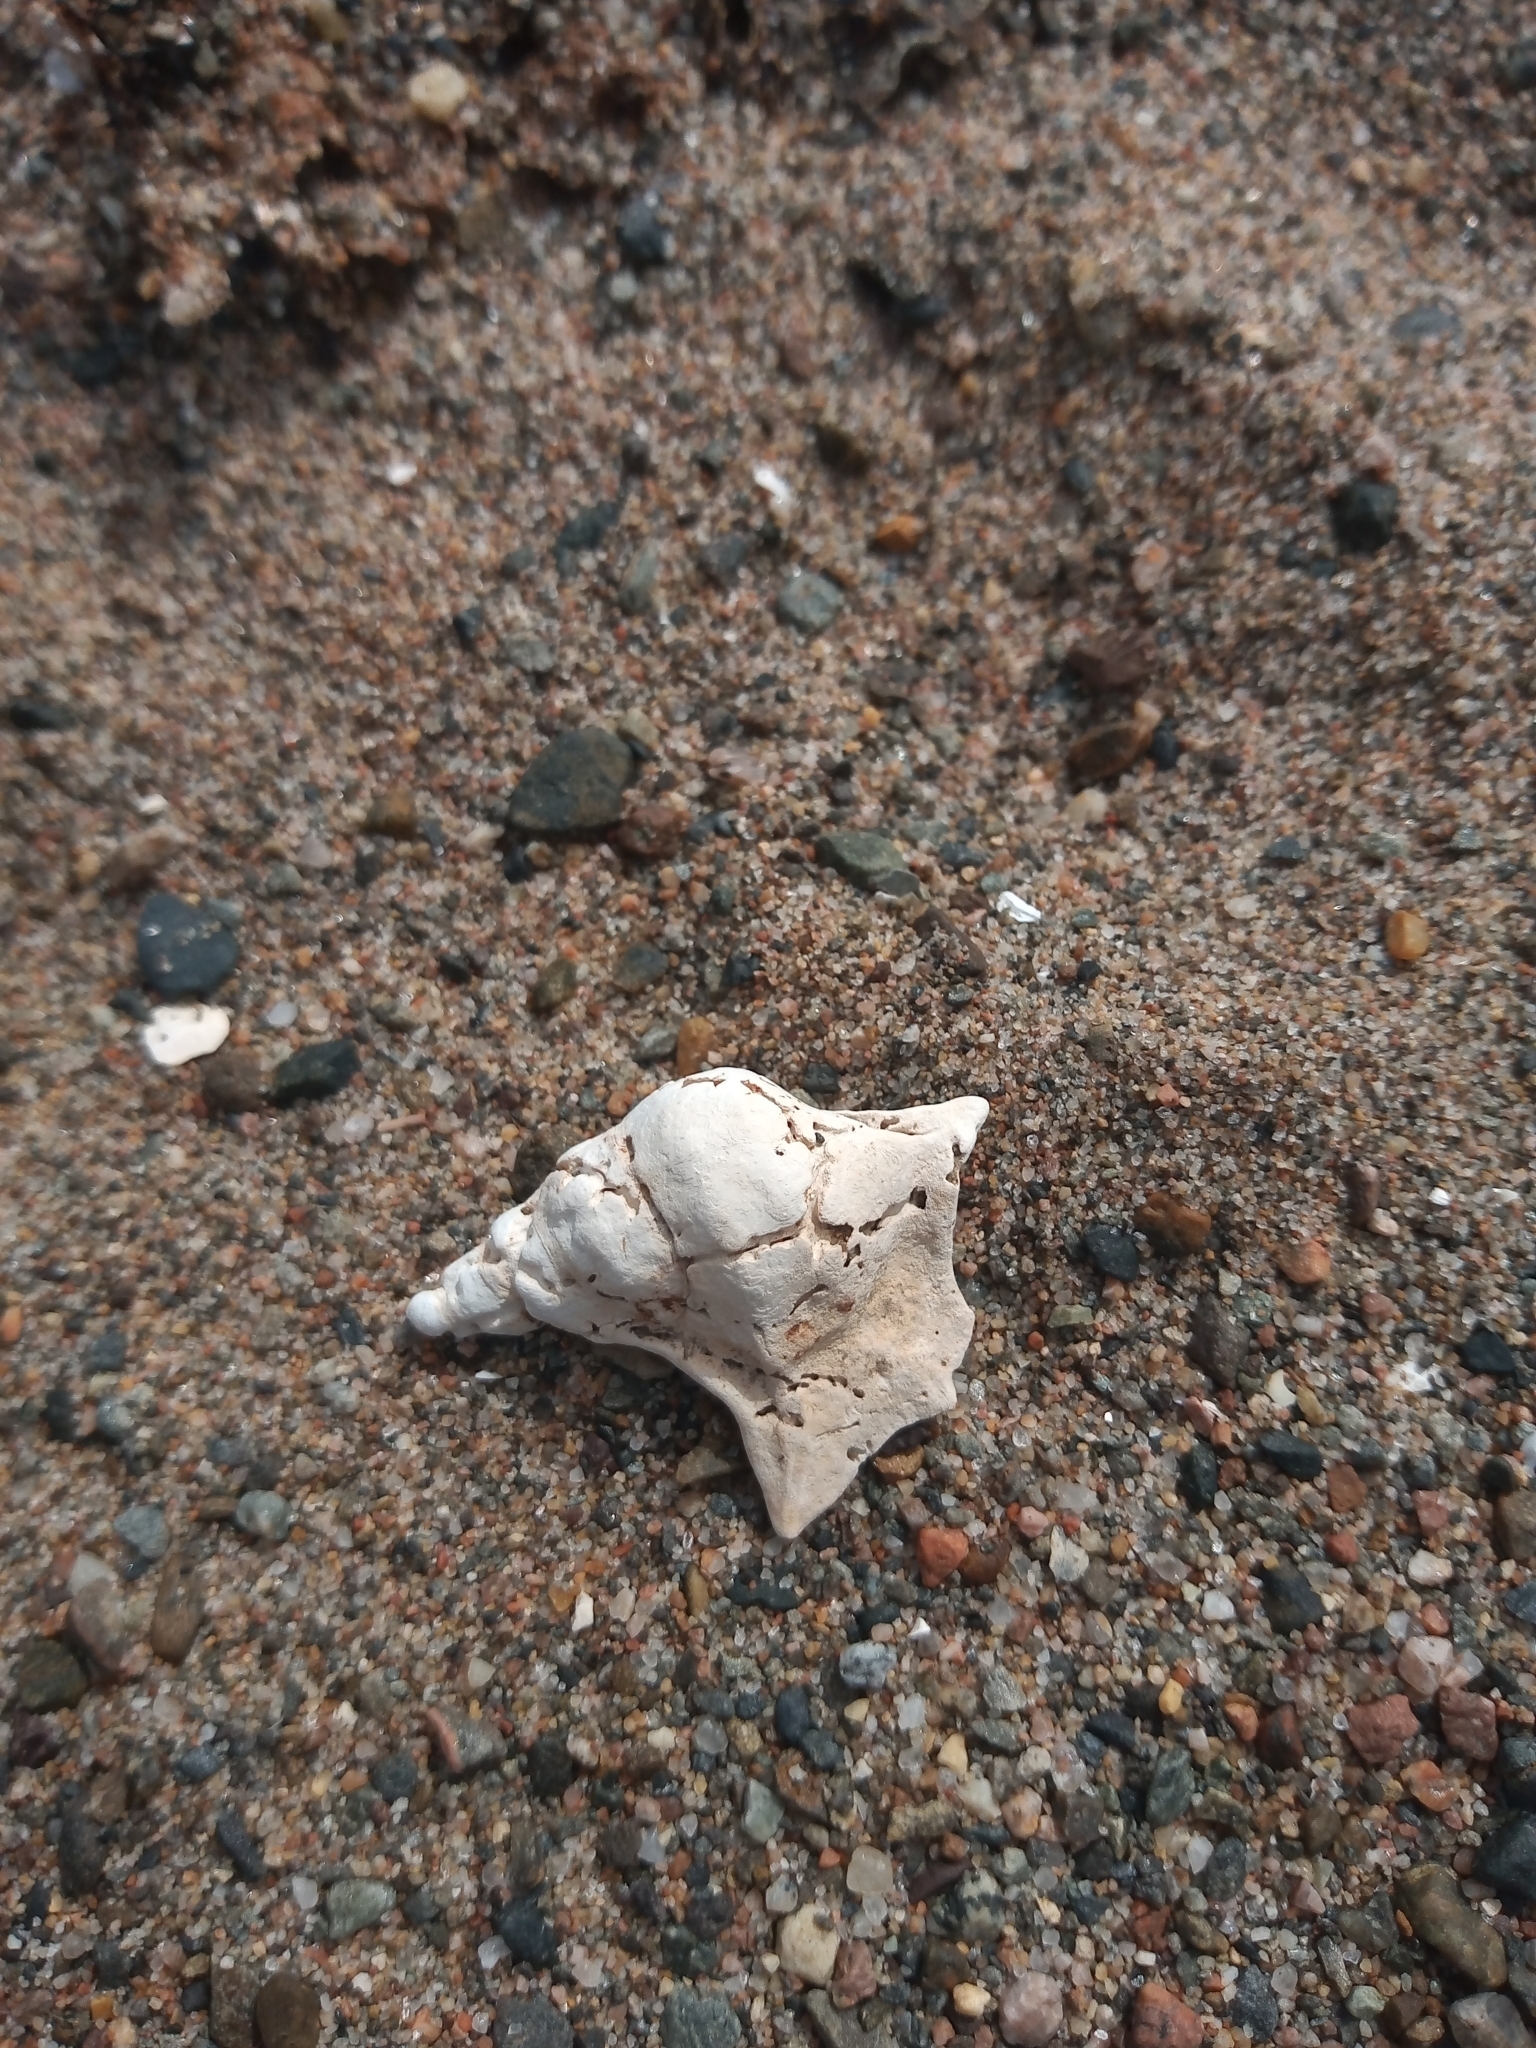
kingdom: Animalia
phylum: Mollusca
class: Gastropoda
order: Littorinimorpha
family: Aporrhaidae
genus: Aporrhais
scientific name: Aporrhais pespelecani
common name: Common pelican’s foot
